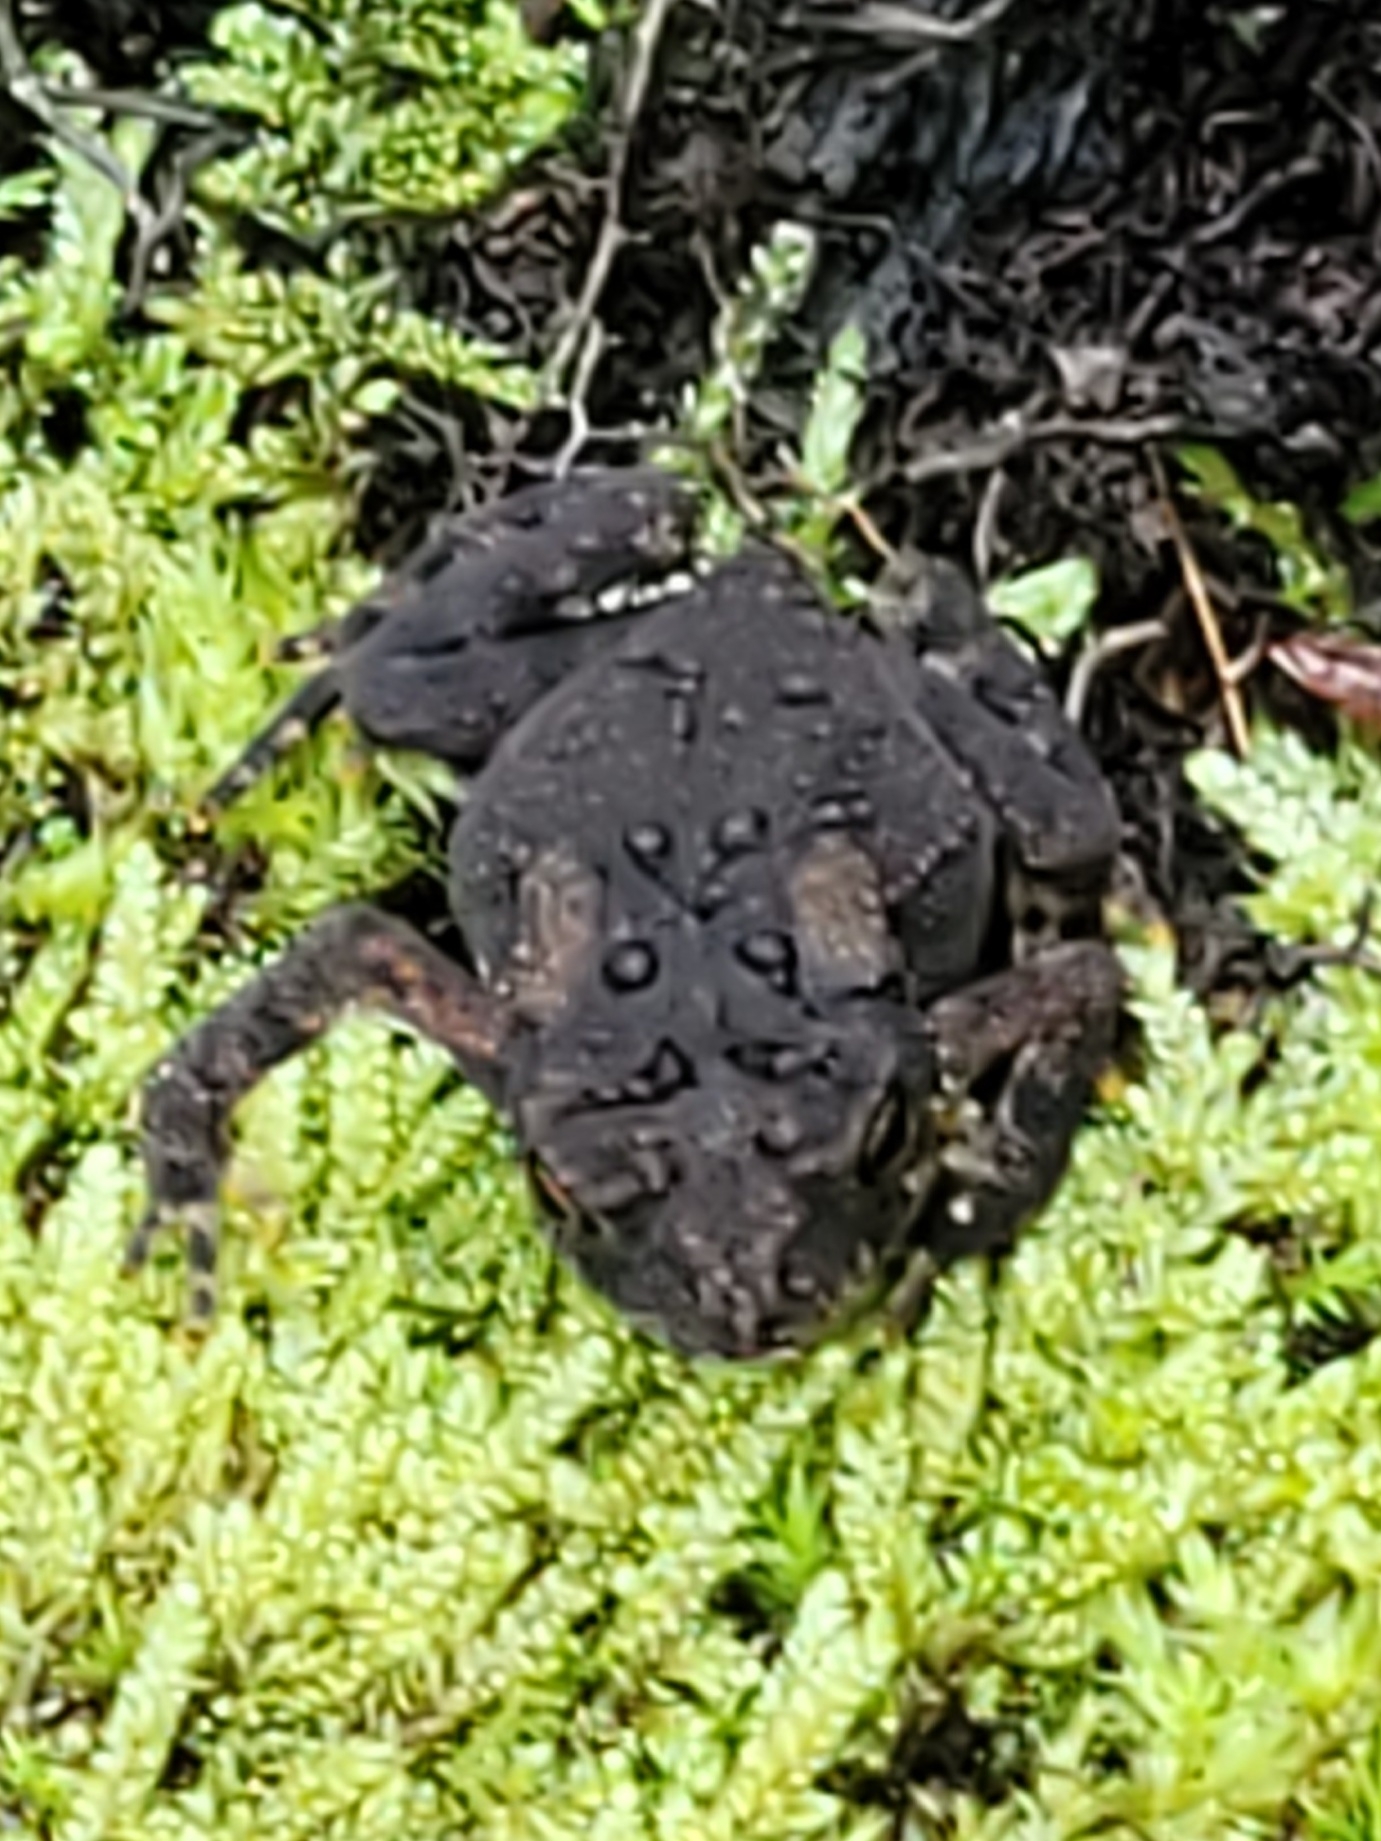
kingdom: Animalia
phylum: Chordata
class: Amphibia
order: Anura
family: Bufonidae
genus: Anaxyrus
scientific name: Anaxyrus americanus
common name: American toad
